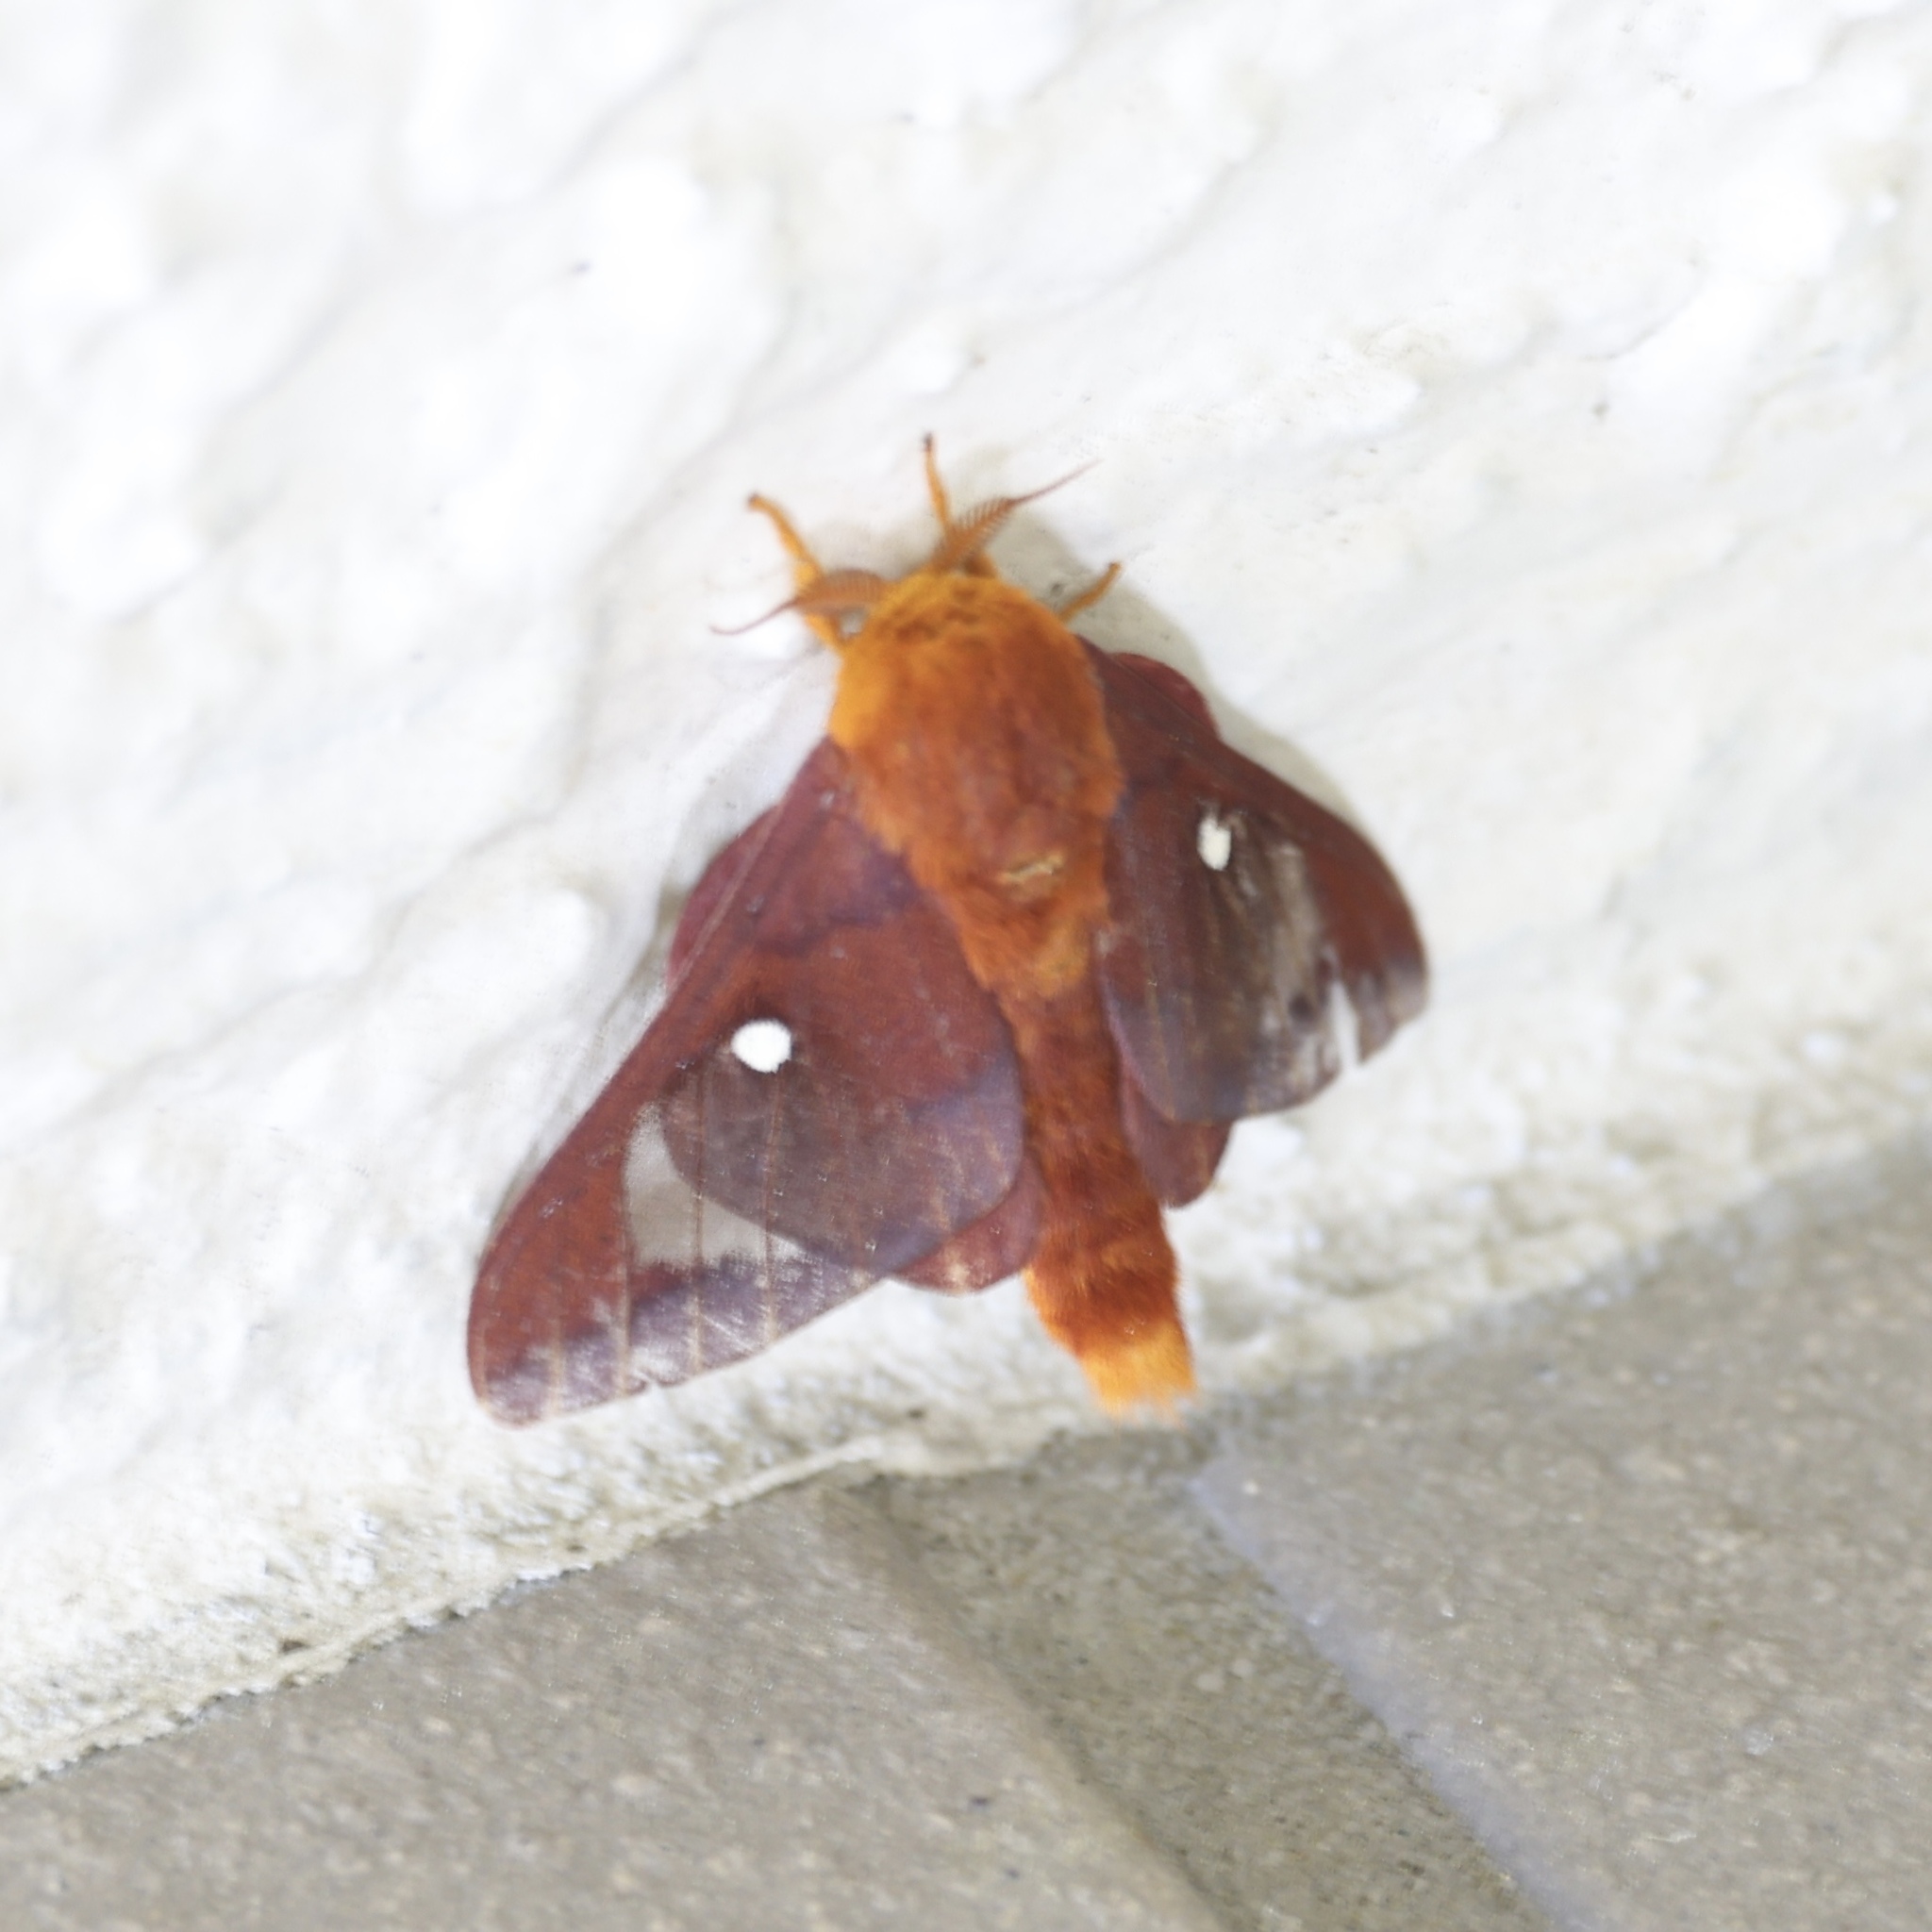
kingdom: Animalia
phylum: Arthropoda
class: Insecta
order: Lepidoptera
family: Saturniidae
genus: Anisota
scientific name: Anisota virginiensis
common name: Pink striped oakworm moth
